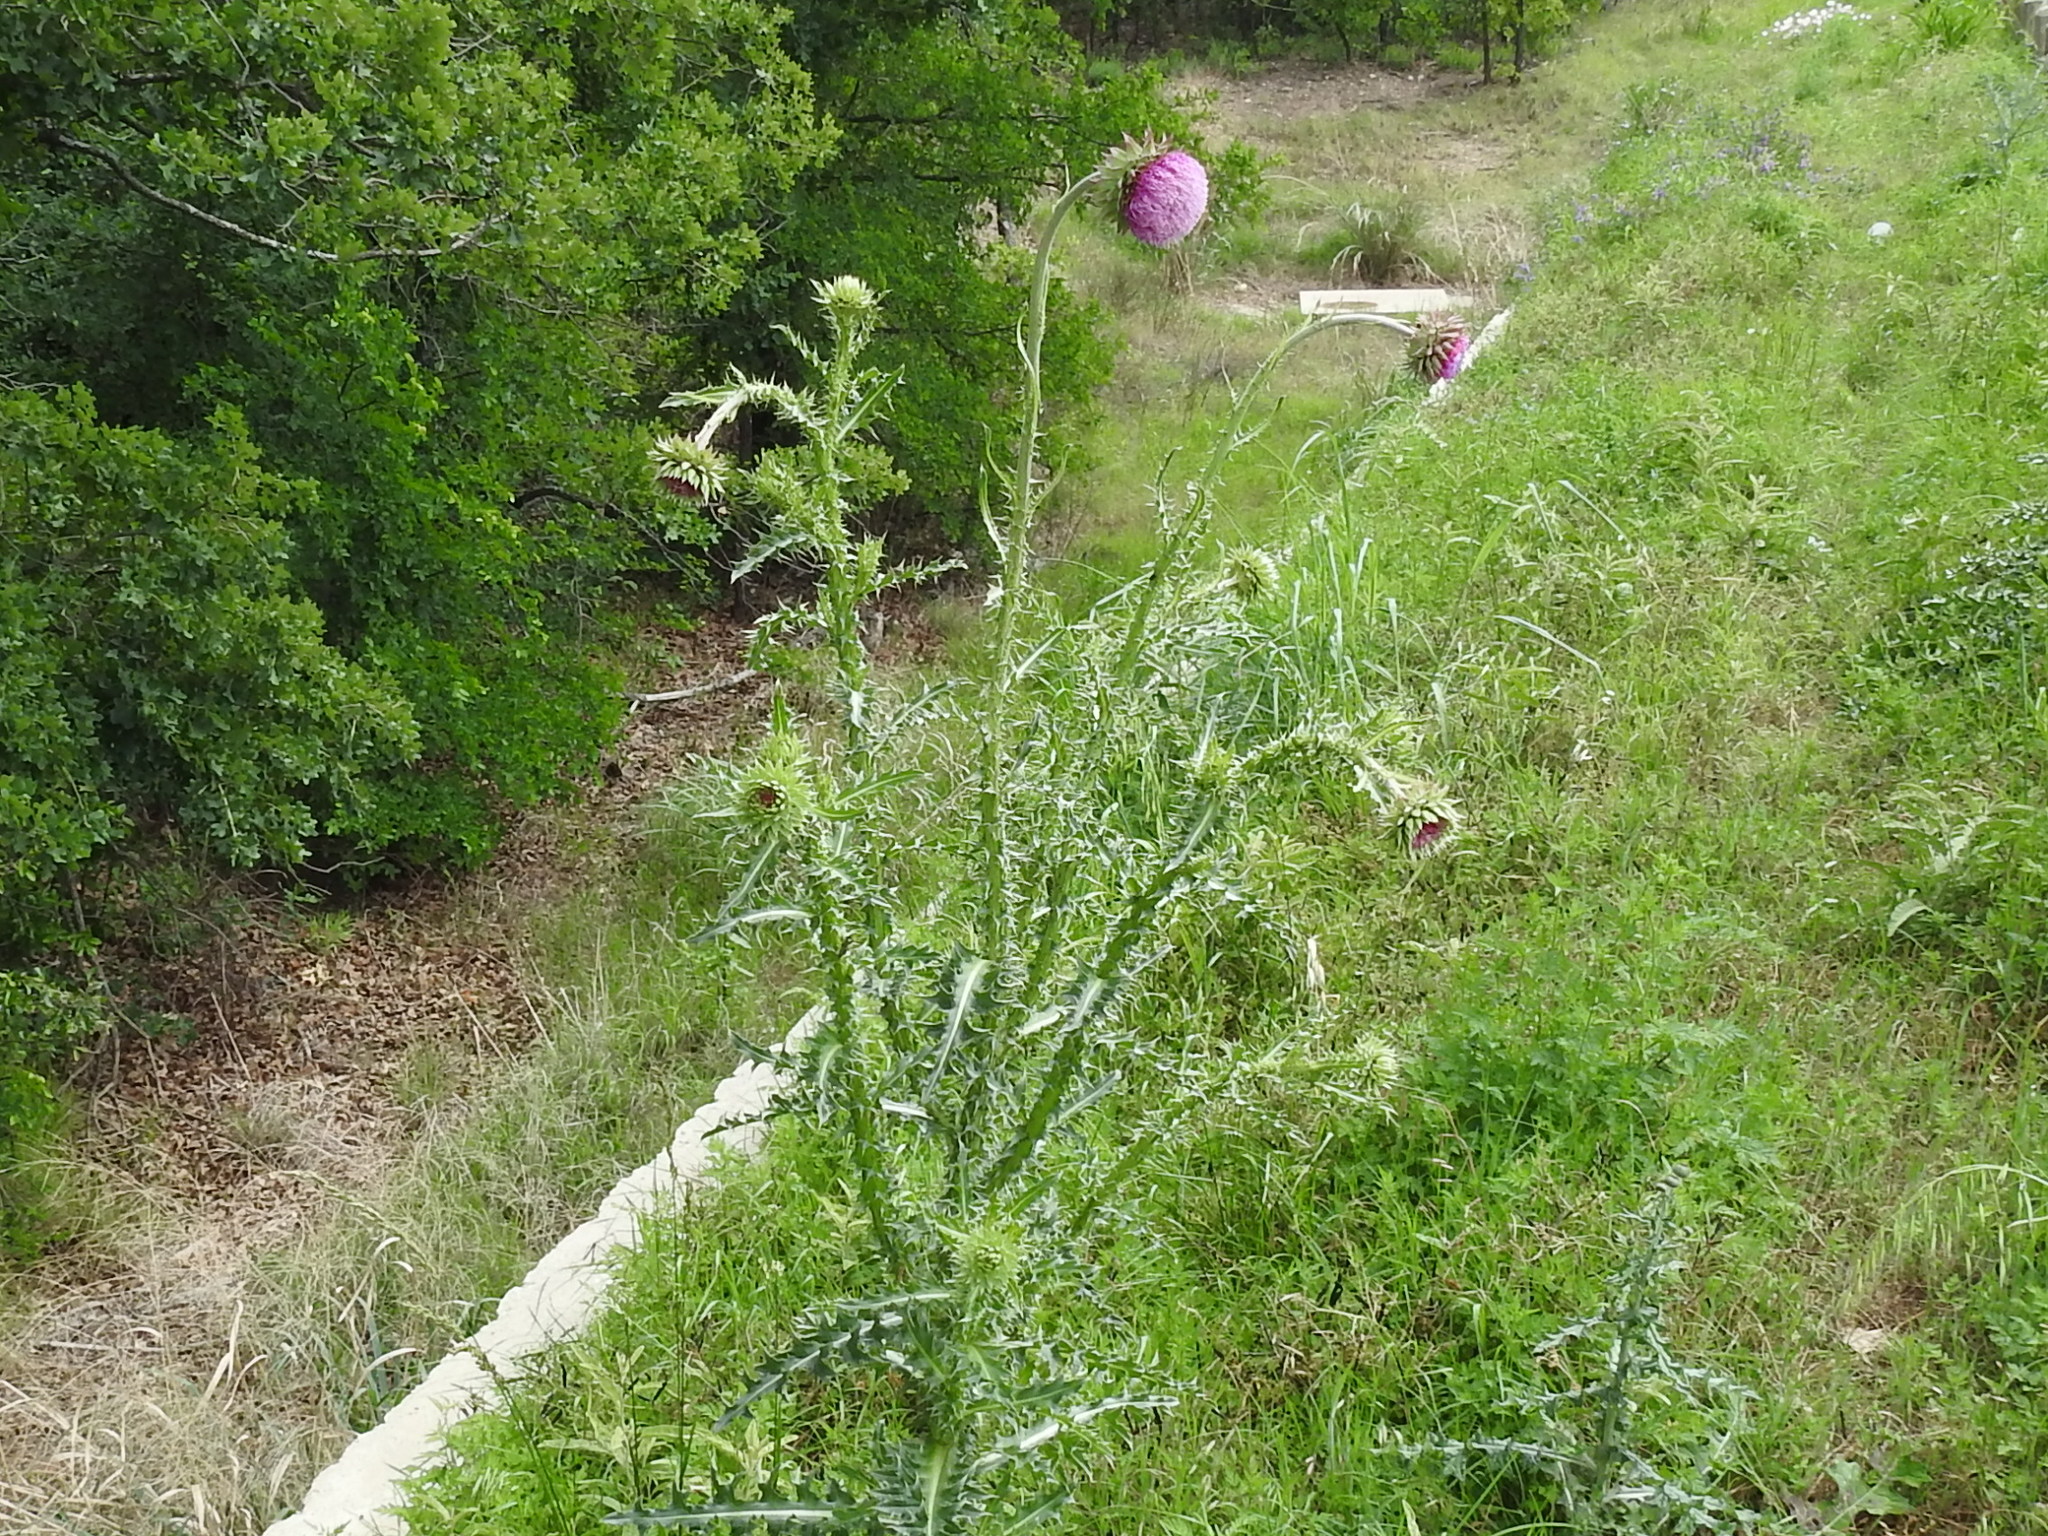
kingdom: Plantae
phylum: Tracheophyta
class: Magnoliopsida
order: Asterales
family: Asteraceae
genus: Carduus
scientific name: Carduus nutans
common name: Musk thistle
